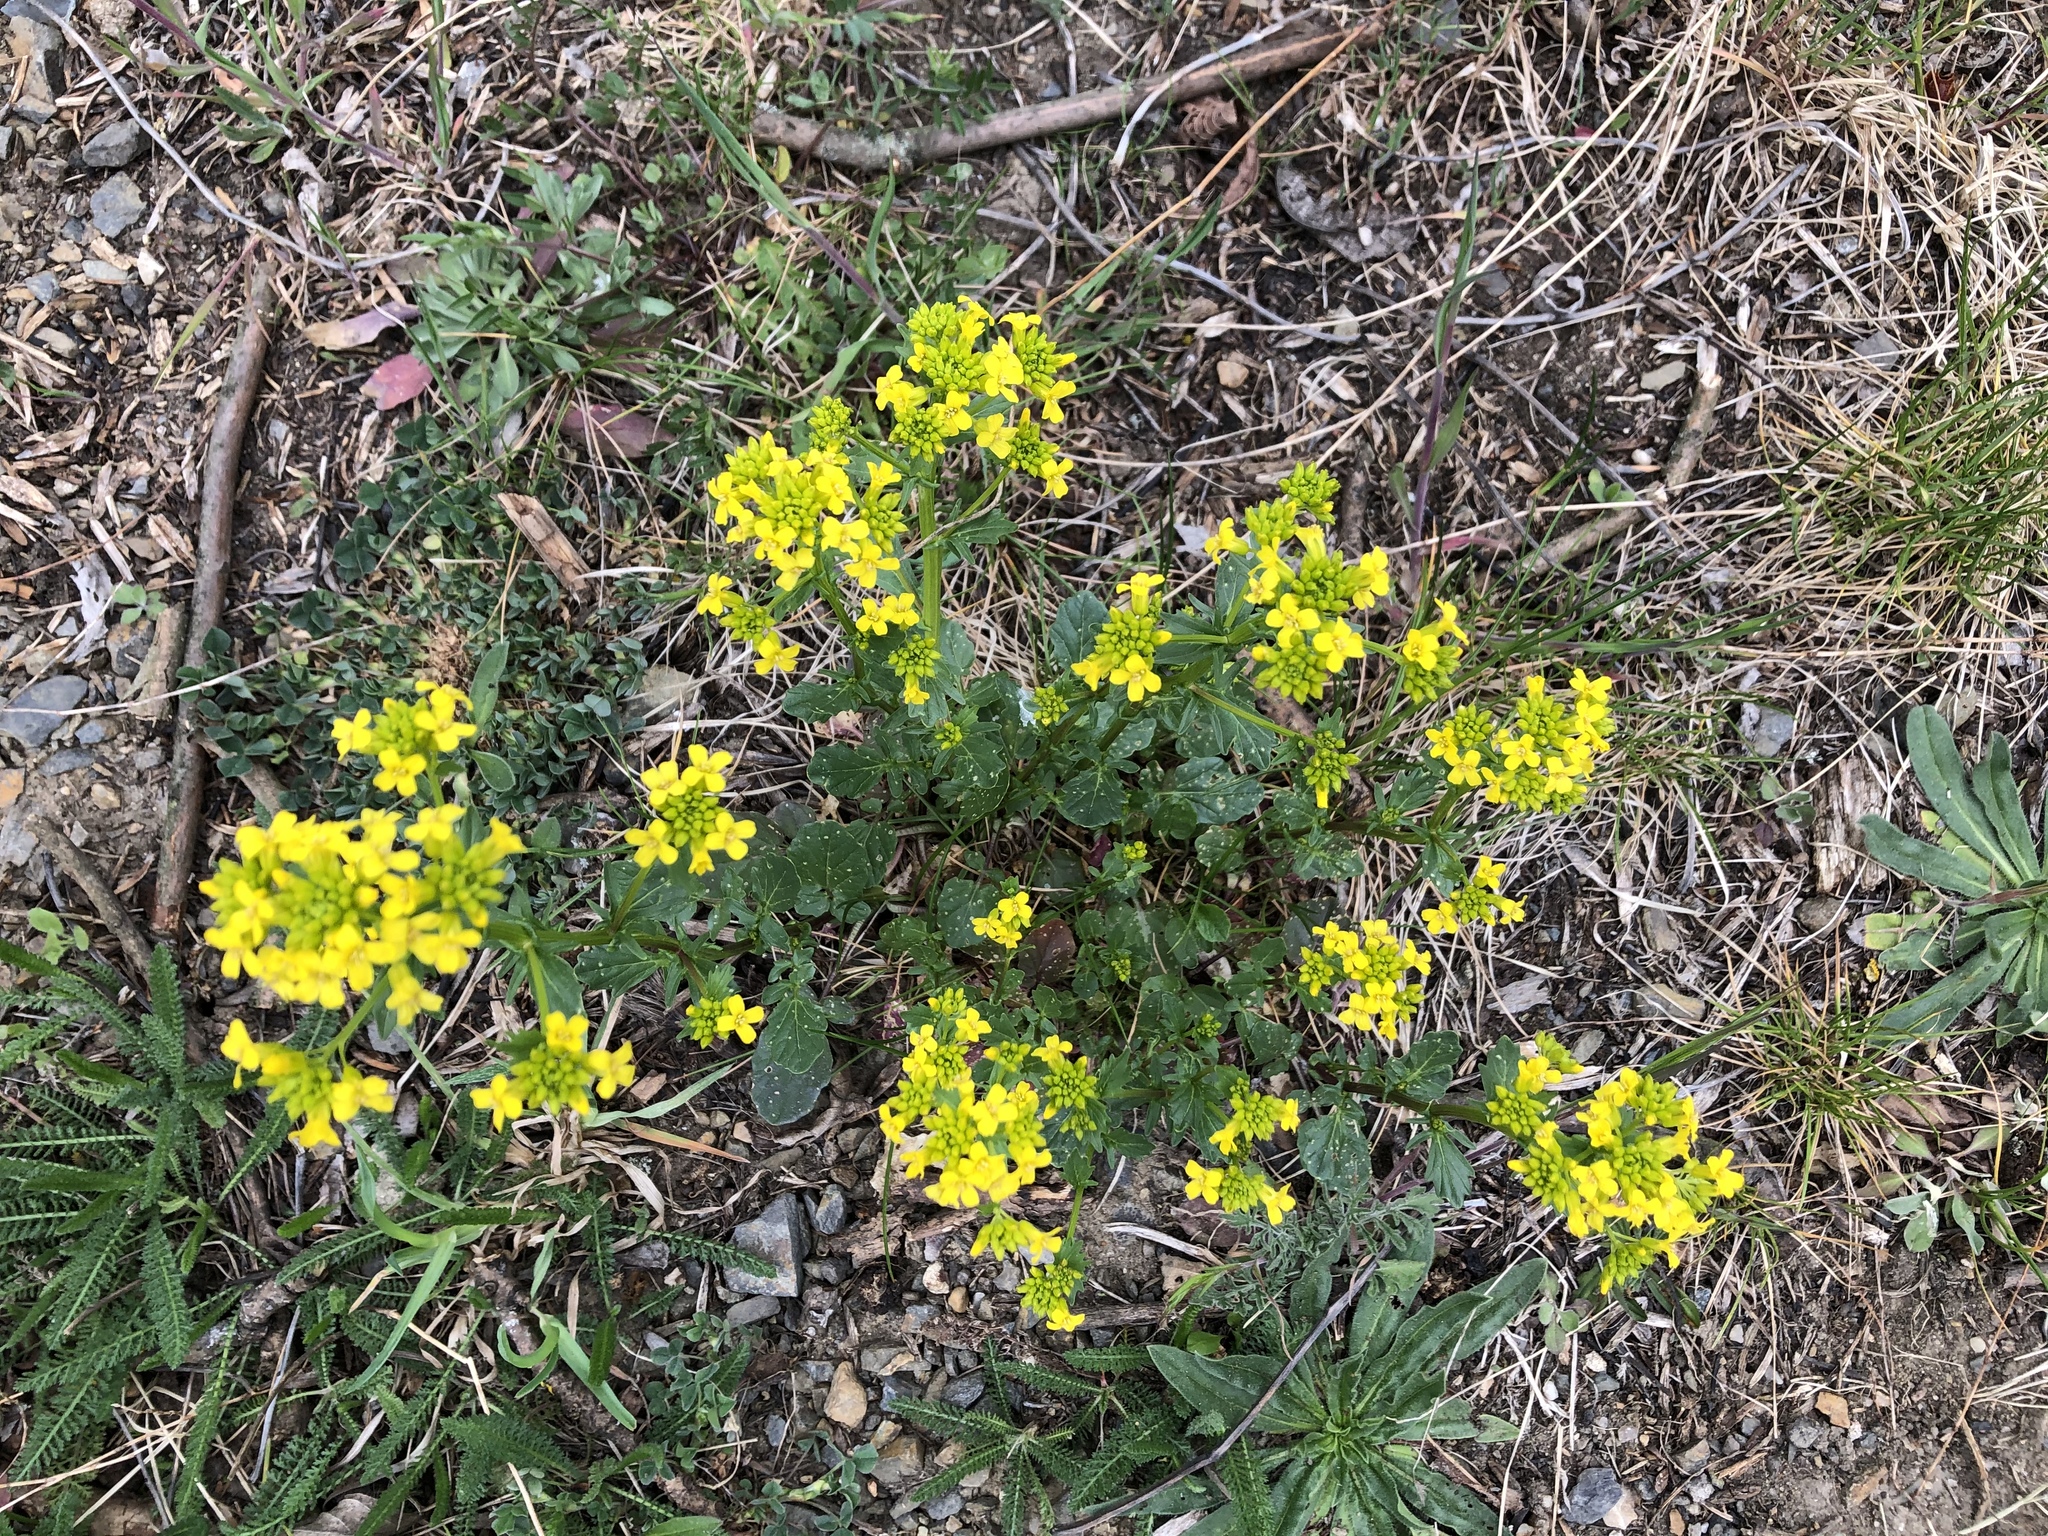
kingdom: Plantae
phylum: Tracheophyta
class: Magnoliopsida
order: Brassicales
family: Brassicaceae
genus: Barbarea
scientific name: Barbarea vulgaris
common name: Cressy-greens
